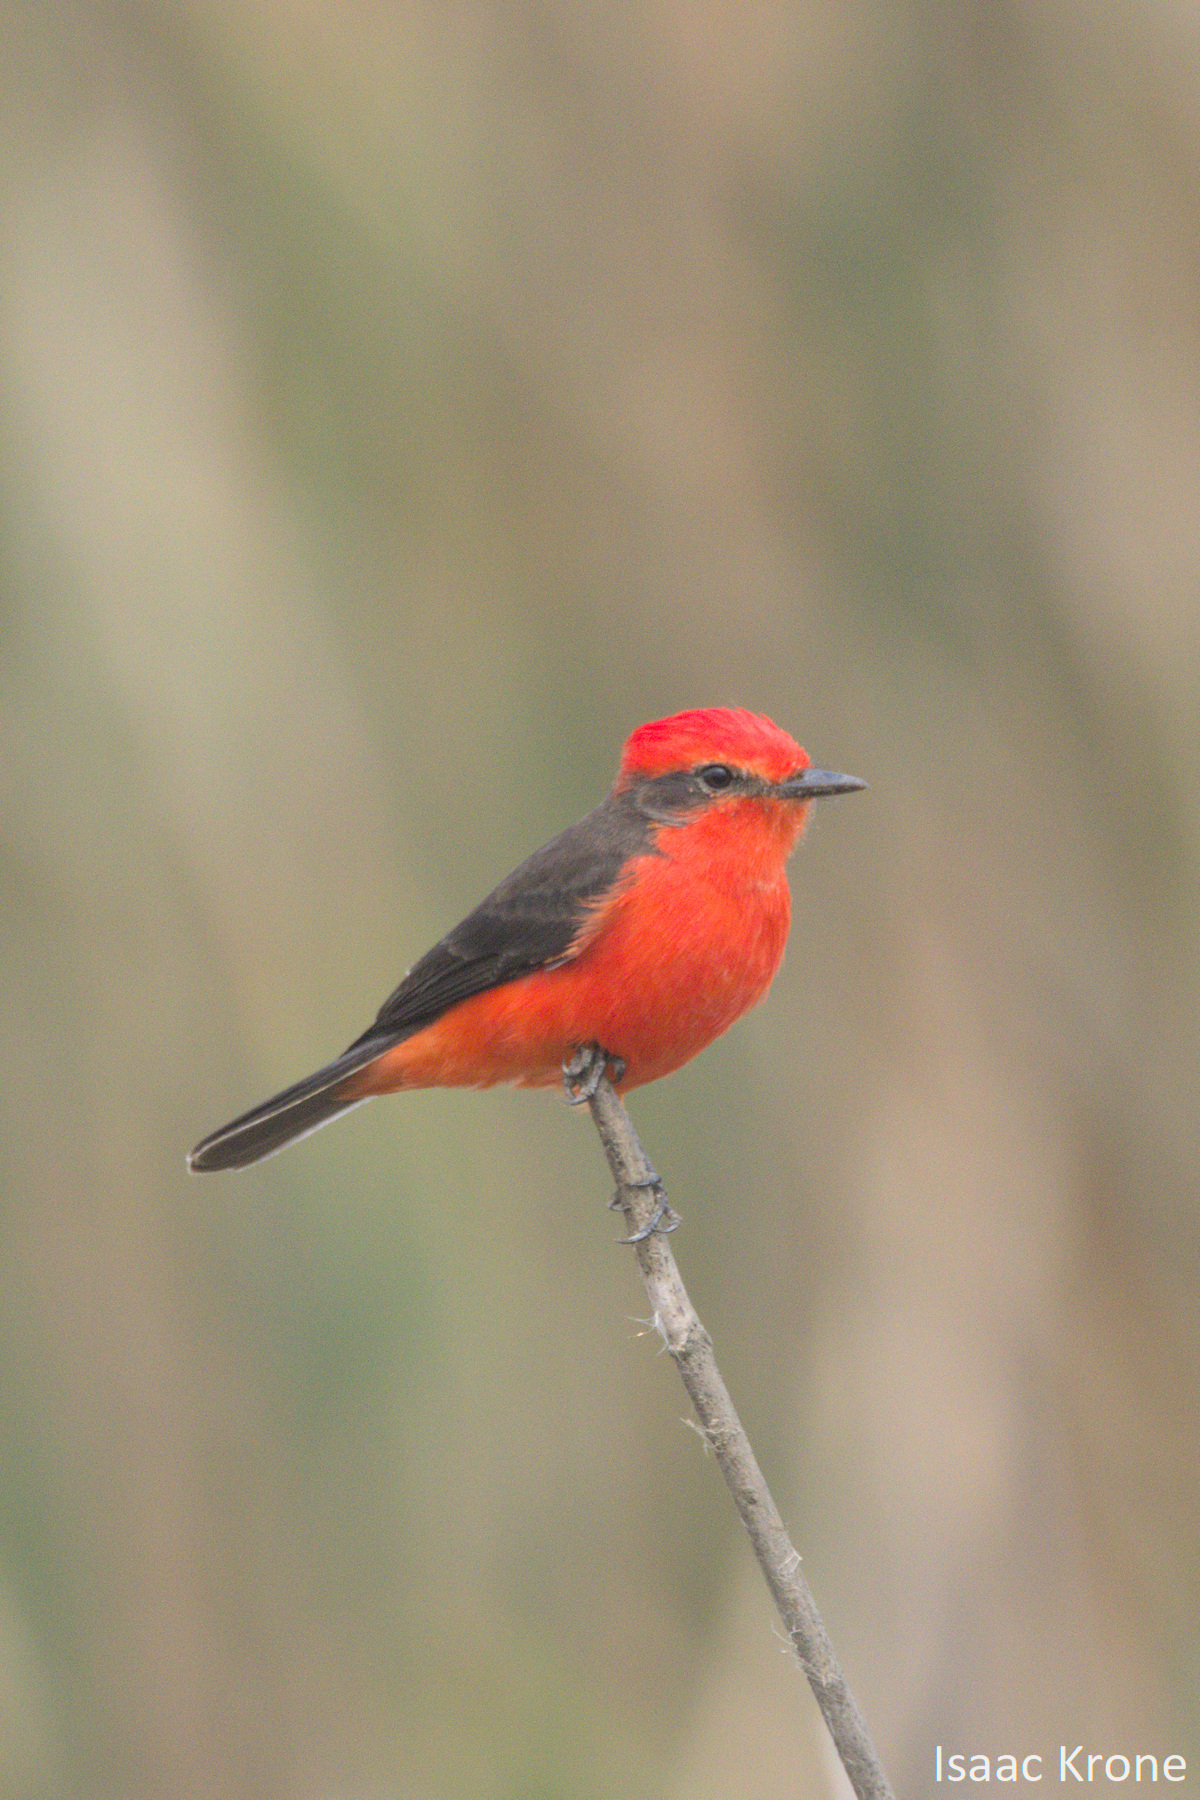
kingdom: Animalia
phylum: Chordata
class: Aves
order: Passeriformes
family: Tyrannidae
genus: Pyrocephalus
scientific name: Pyrocephalus rubinus
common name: Vermilion flycatcher
